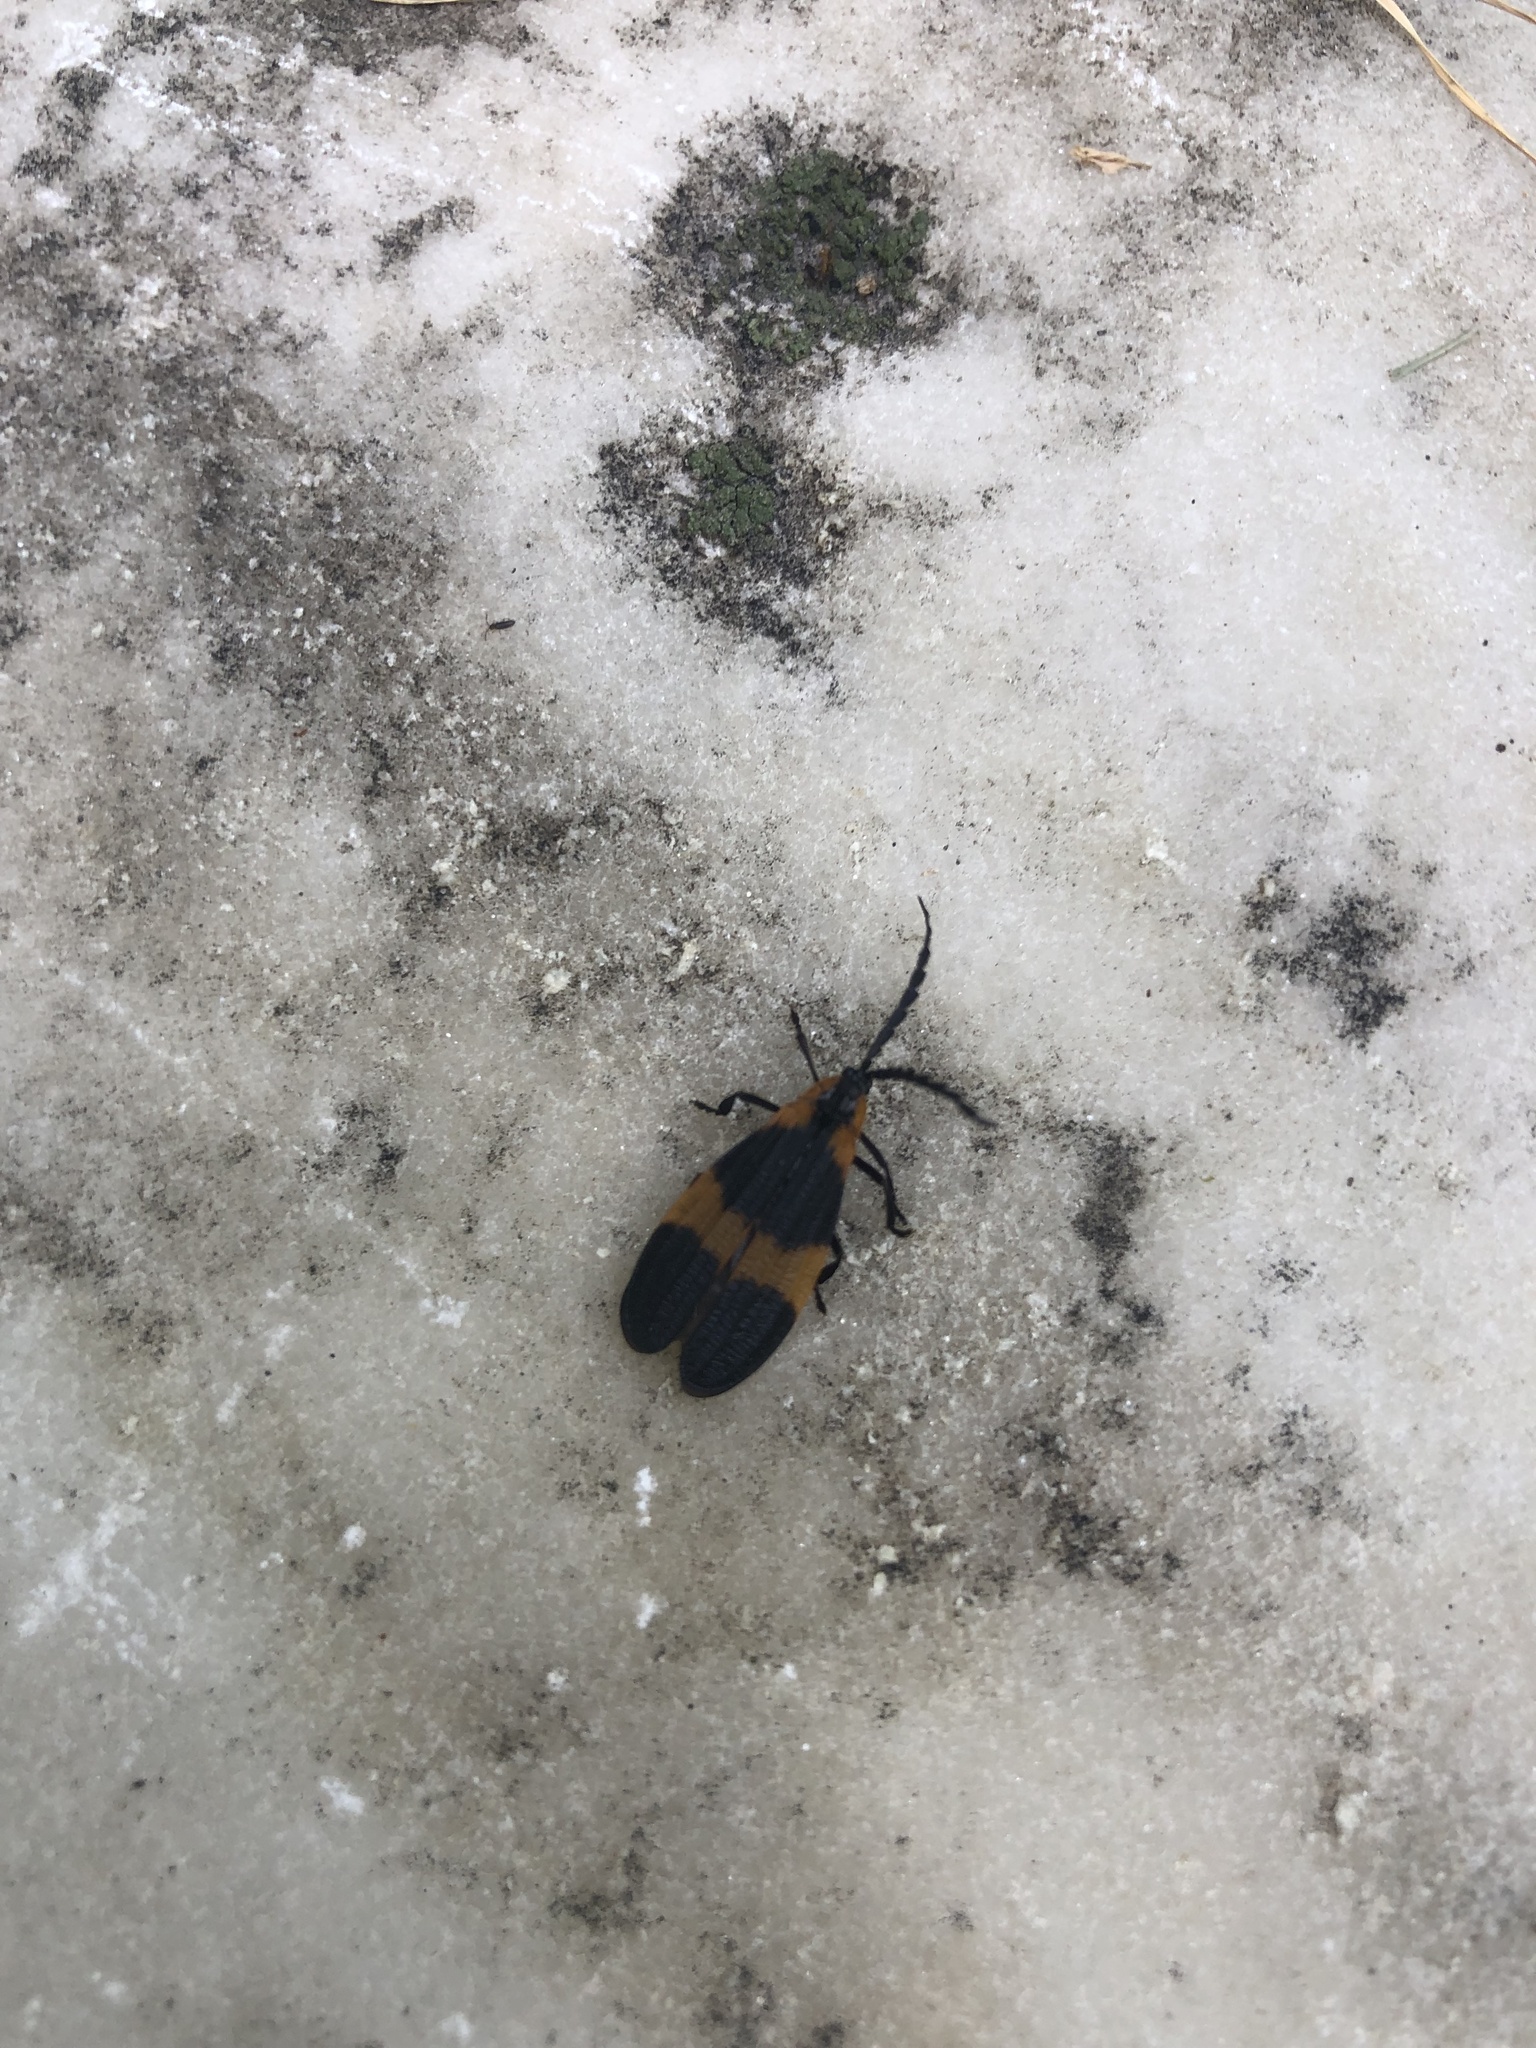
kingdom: Animalia
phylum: Arthropoda
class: Insecta
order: Coleoptera
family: Lycidae
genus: Calopteron
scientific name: Calopteron reticulatum
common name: Banded net-winged beetle
